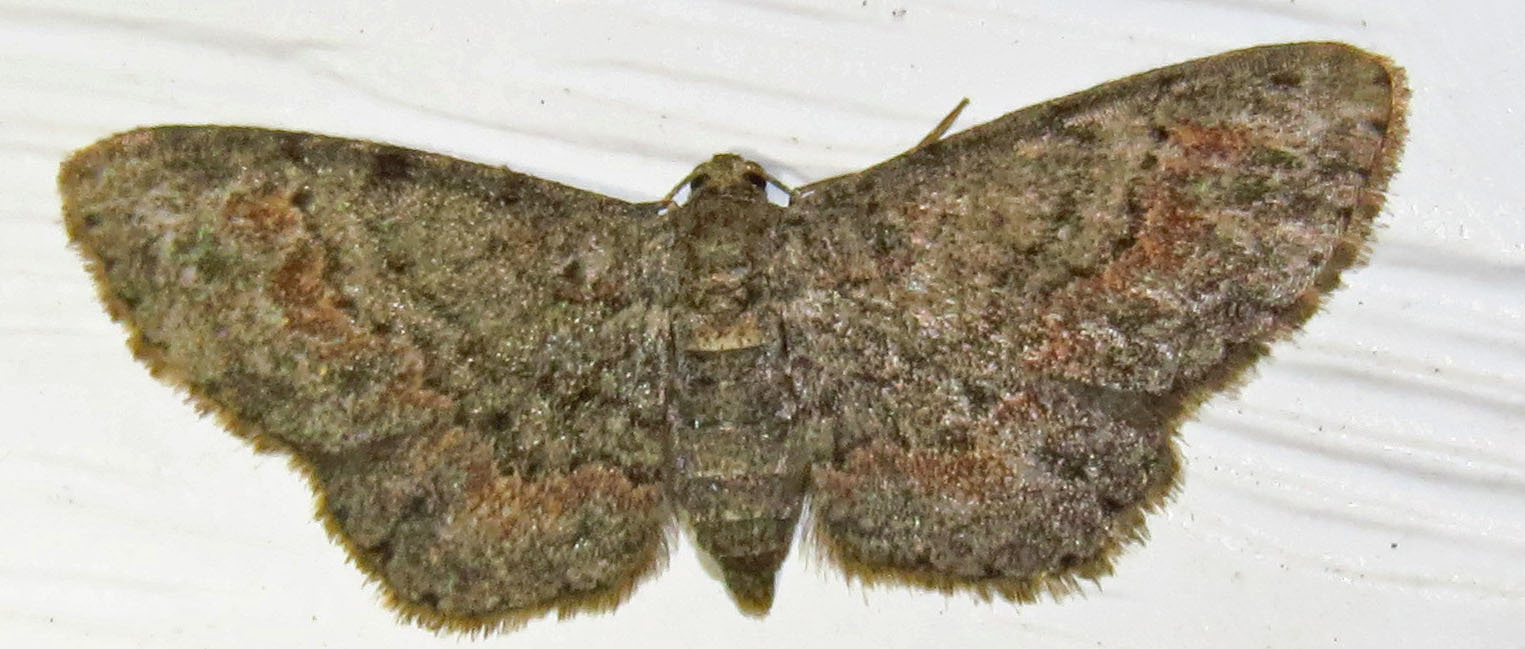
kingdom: Animalia
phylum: Arthropoda
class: Insecta
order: Lepidoptera
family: Geometridae
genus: Glenoides
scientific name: Glenoides texanaria
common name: Texas gray
